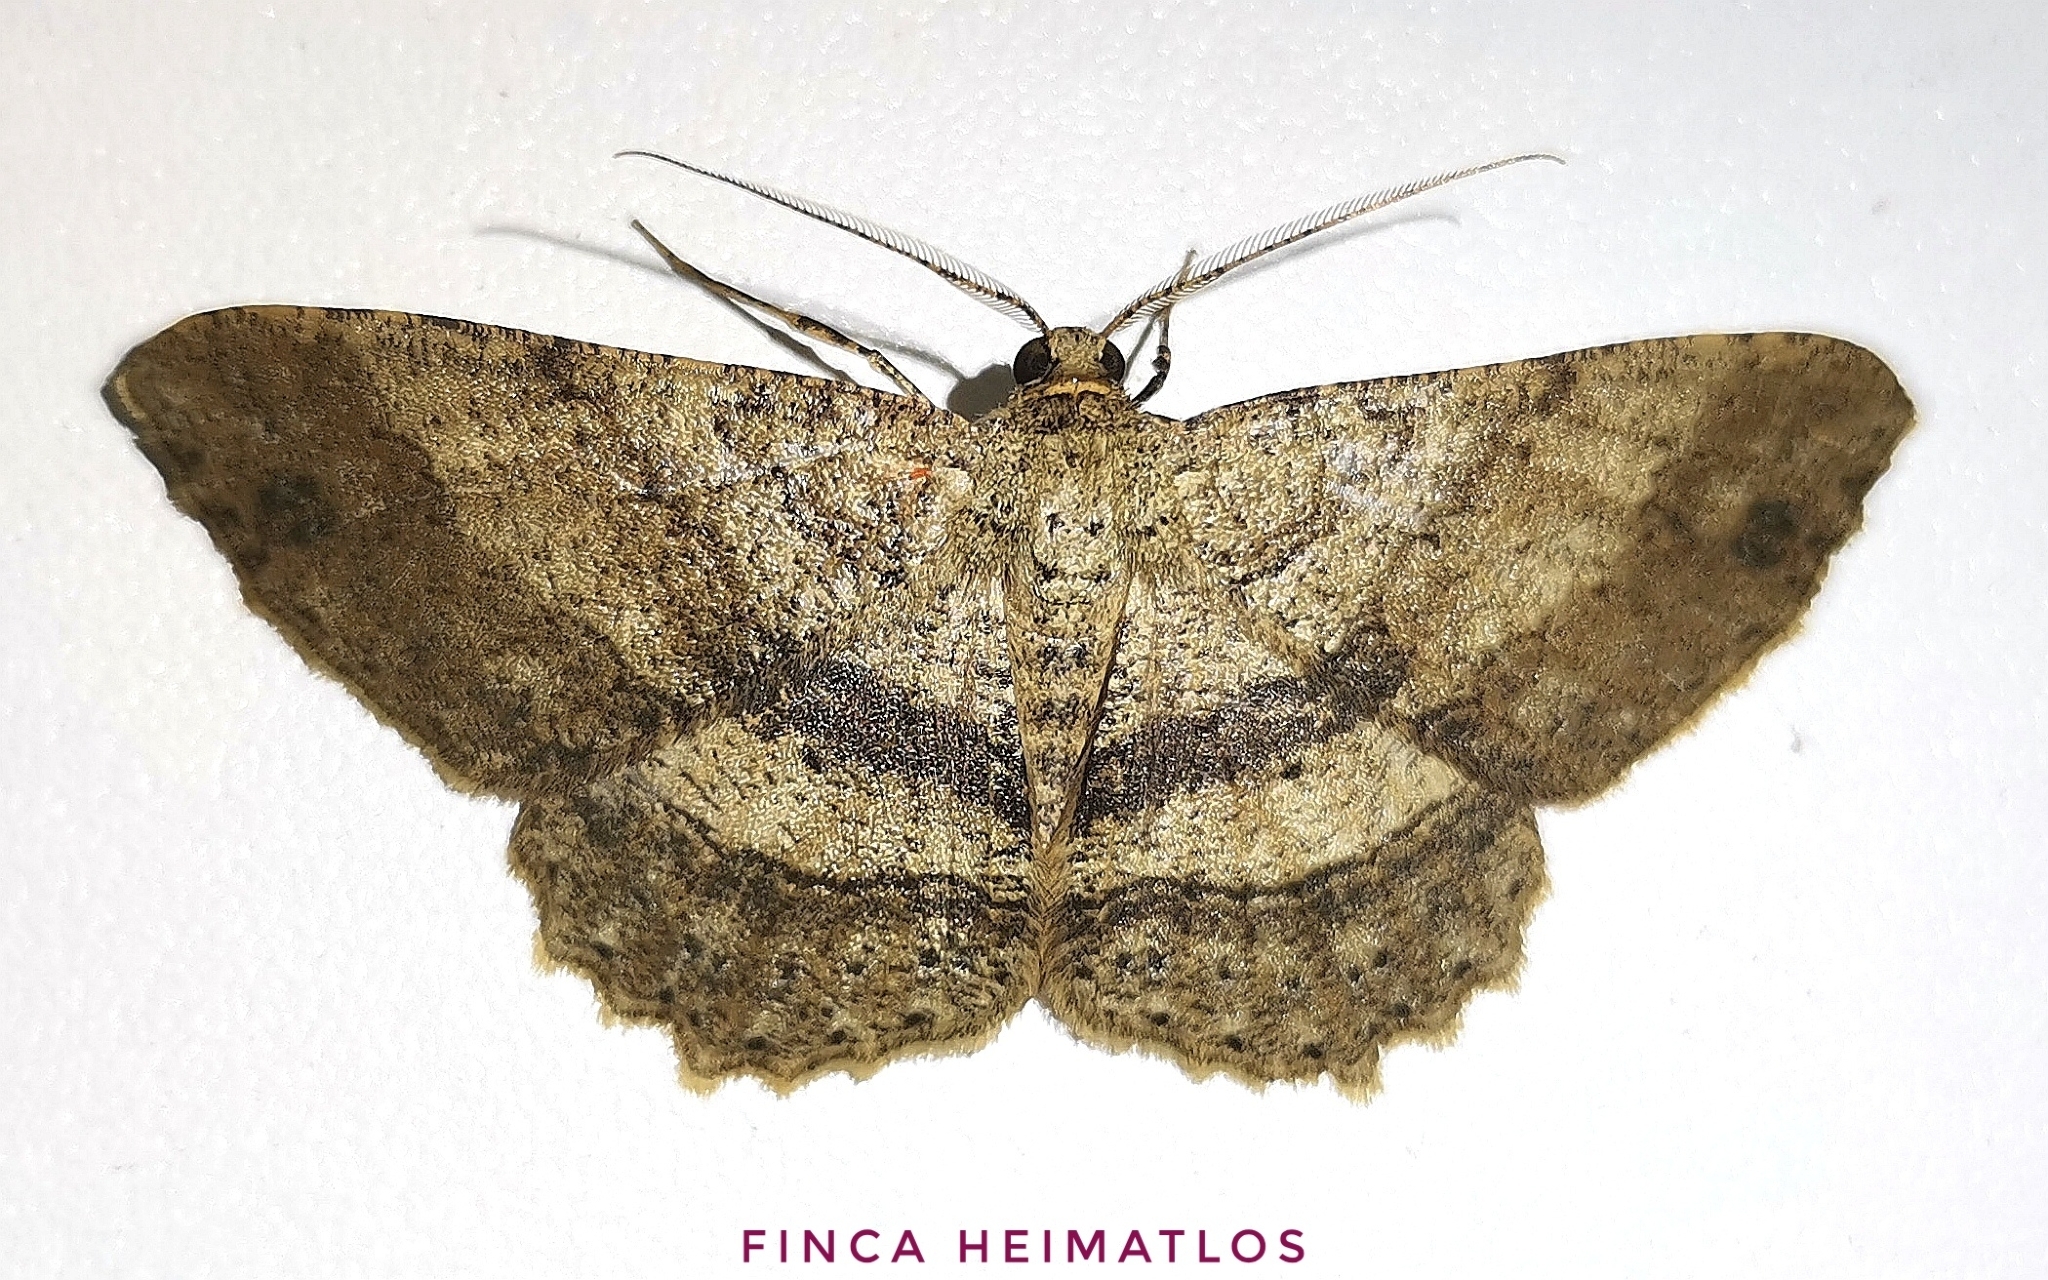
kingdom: Animalia
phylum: Arthropoda
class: Insecta
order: Lepidoptera
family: Geometridae
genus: Melanolophia
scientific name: Melanolophia muscosa
